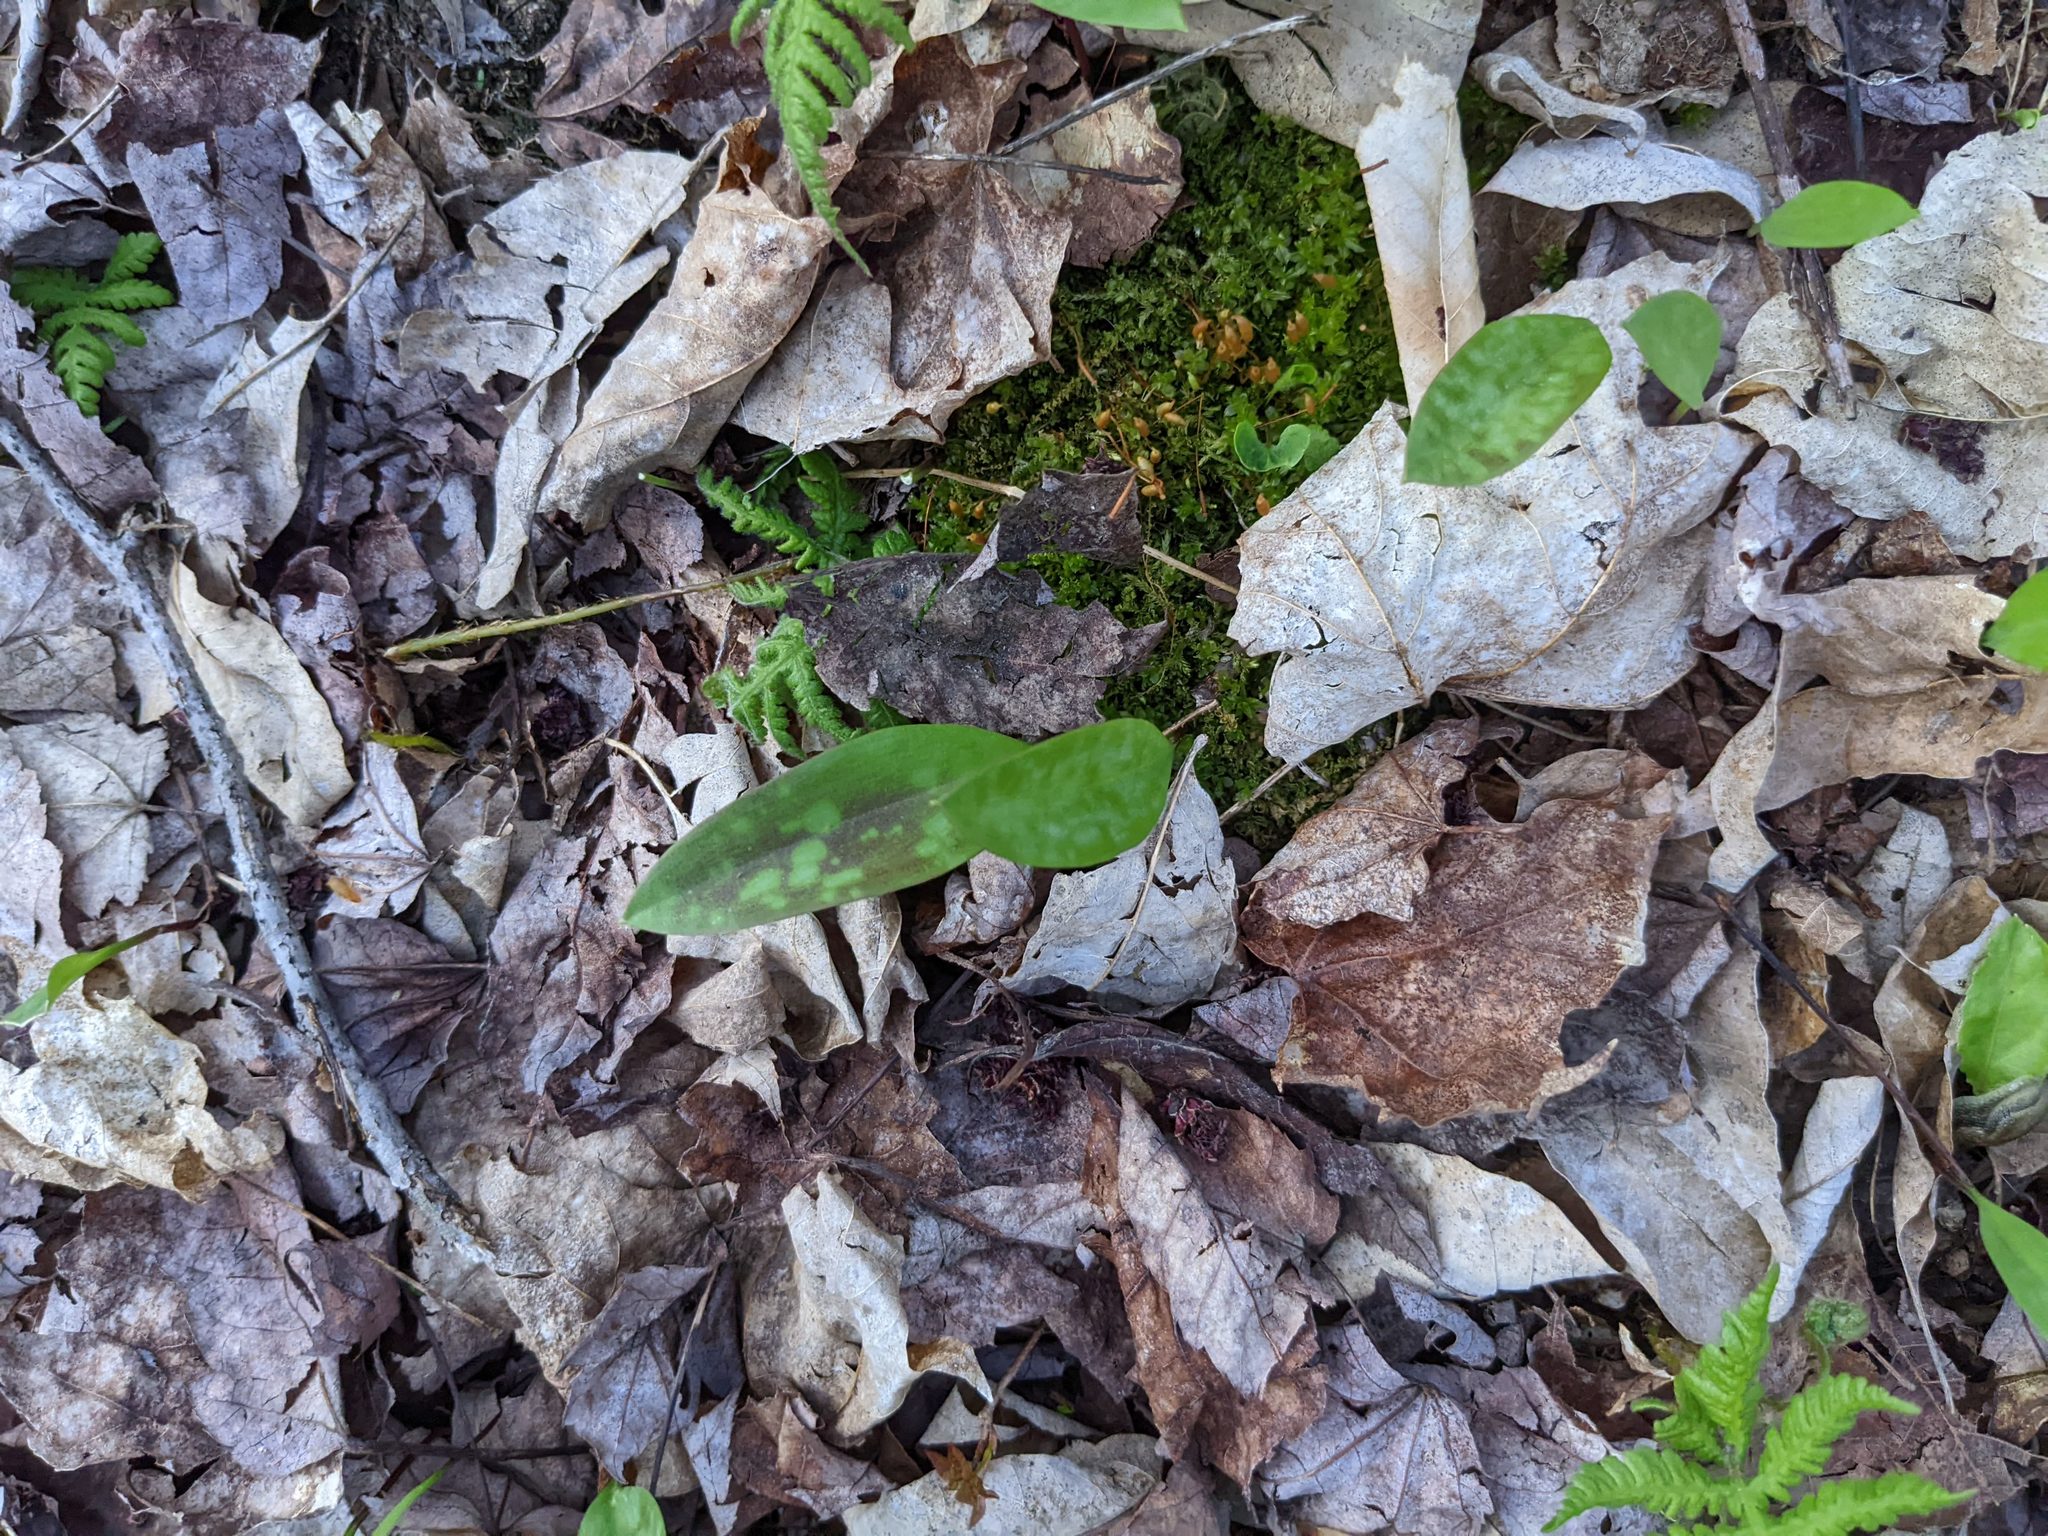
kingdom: Plantae
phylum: Tracheophyta
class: Liliopsida
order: Liliales
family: Liliaceae
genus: Erythronium
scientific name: Erythronium americanum
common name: Yellow adder's-tongue
